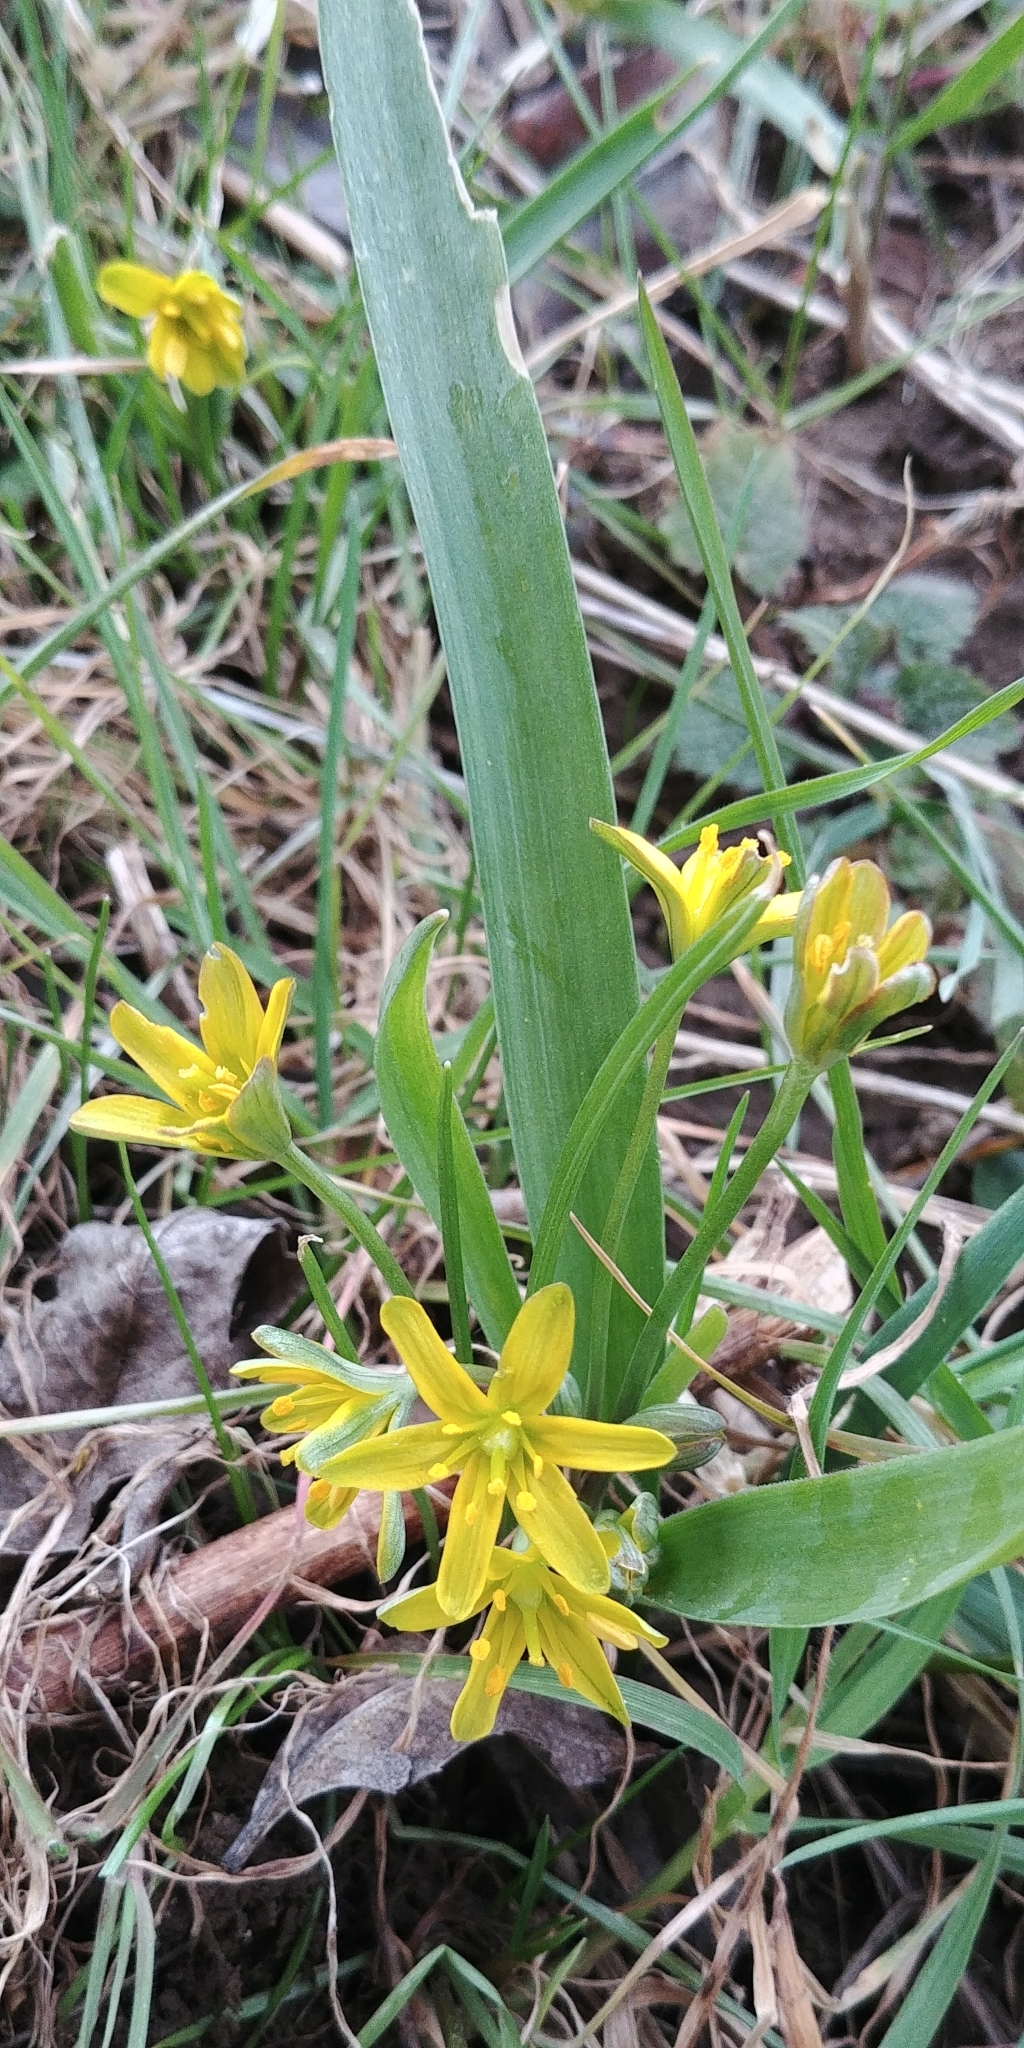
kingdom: Plantae
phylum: Tracheophyta
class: Liliopsida
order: Liliales
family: Liliaceae
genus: Gagea
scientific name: Gagea lutea
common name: Yellow star-of-bethlehem
